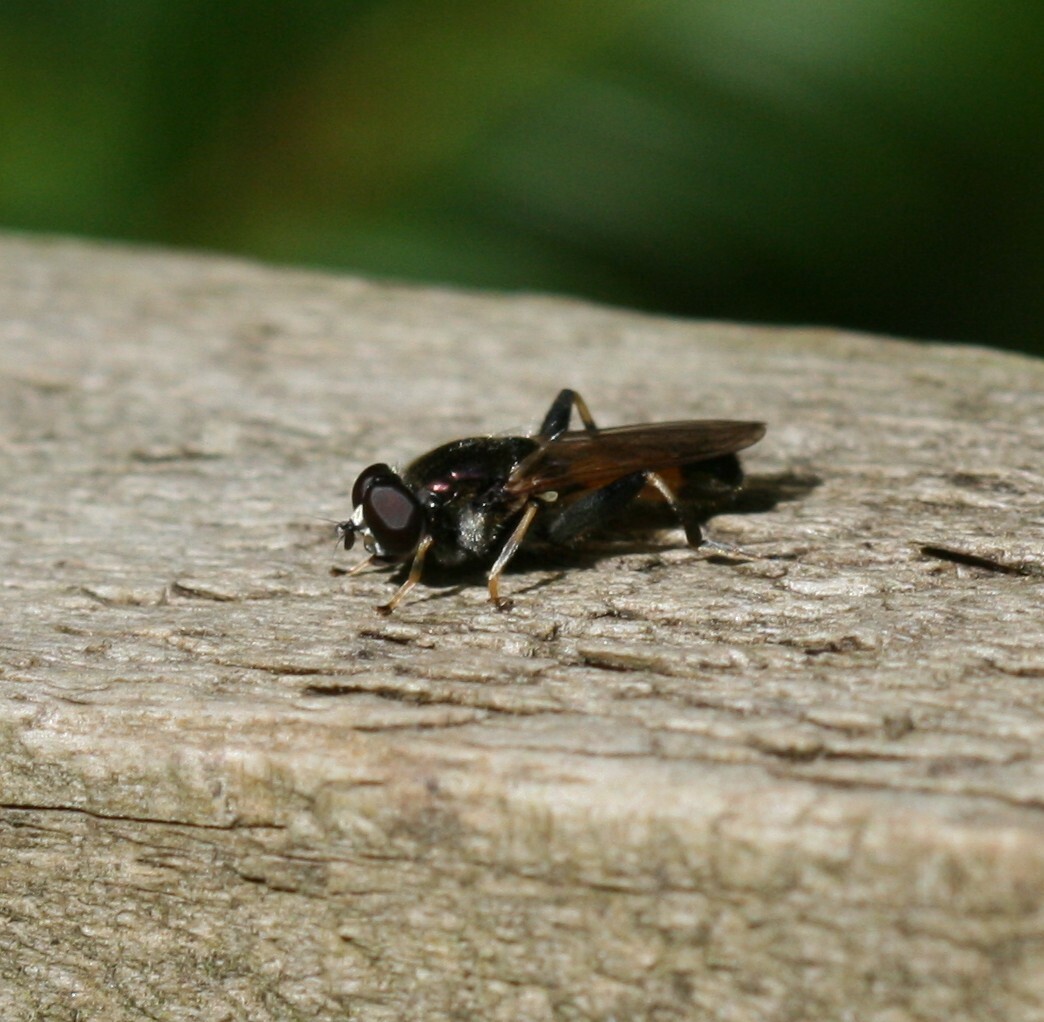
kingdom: Animalia
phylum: Arthropoda
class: Insecta
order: Diptera
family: Syrphidae
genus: Xylota
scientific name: Xylota segnis
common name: Brown-toed forest fly
